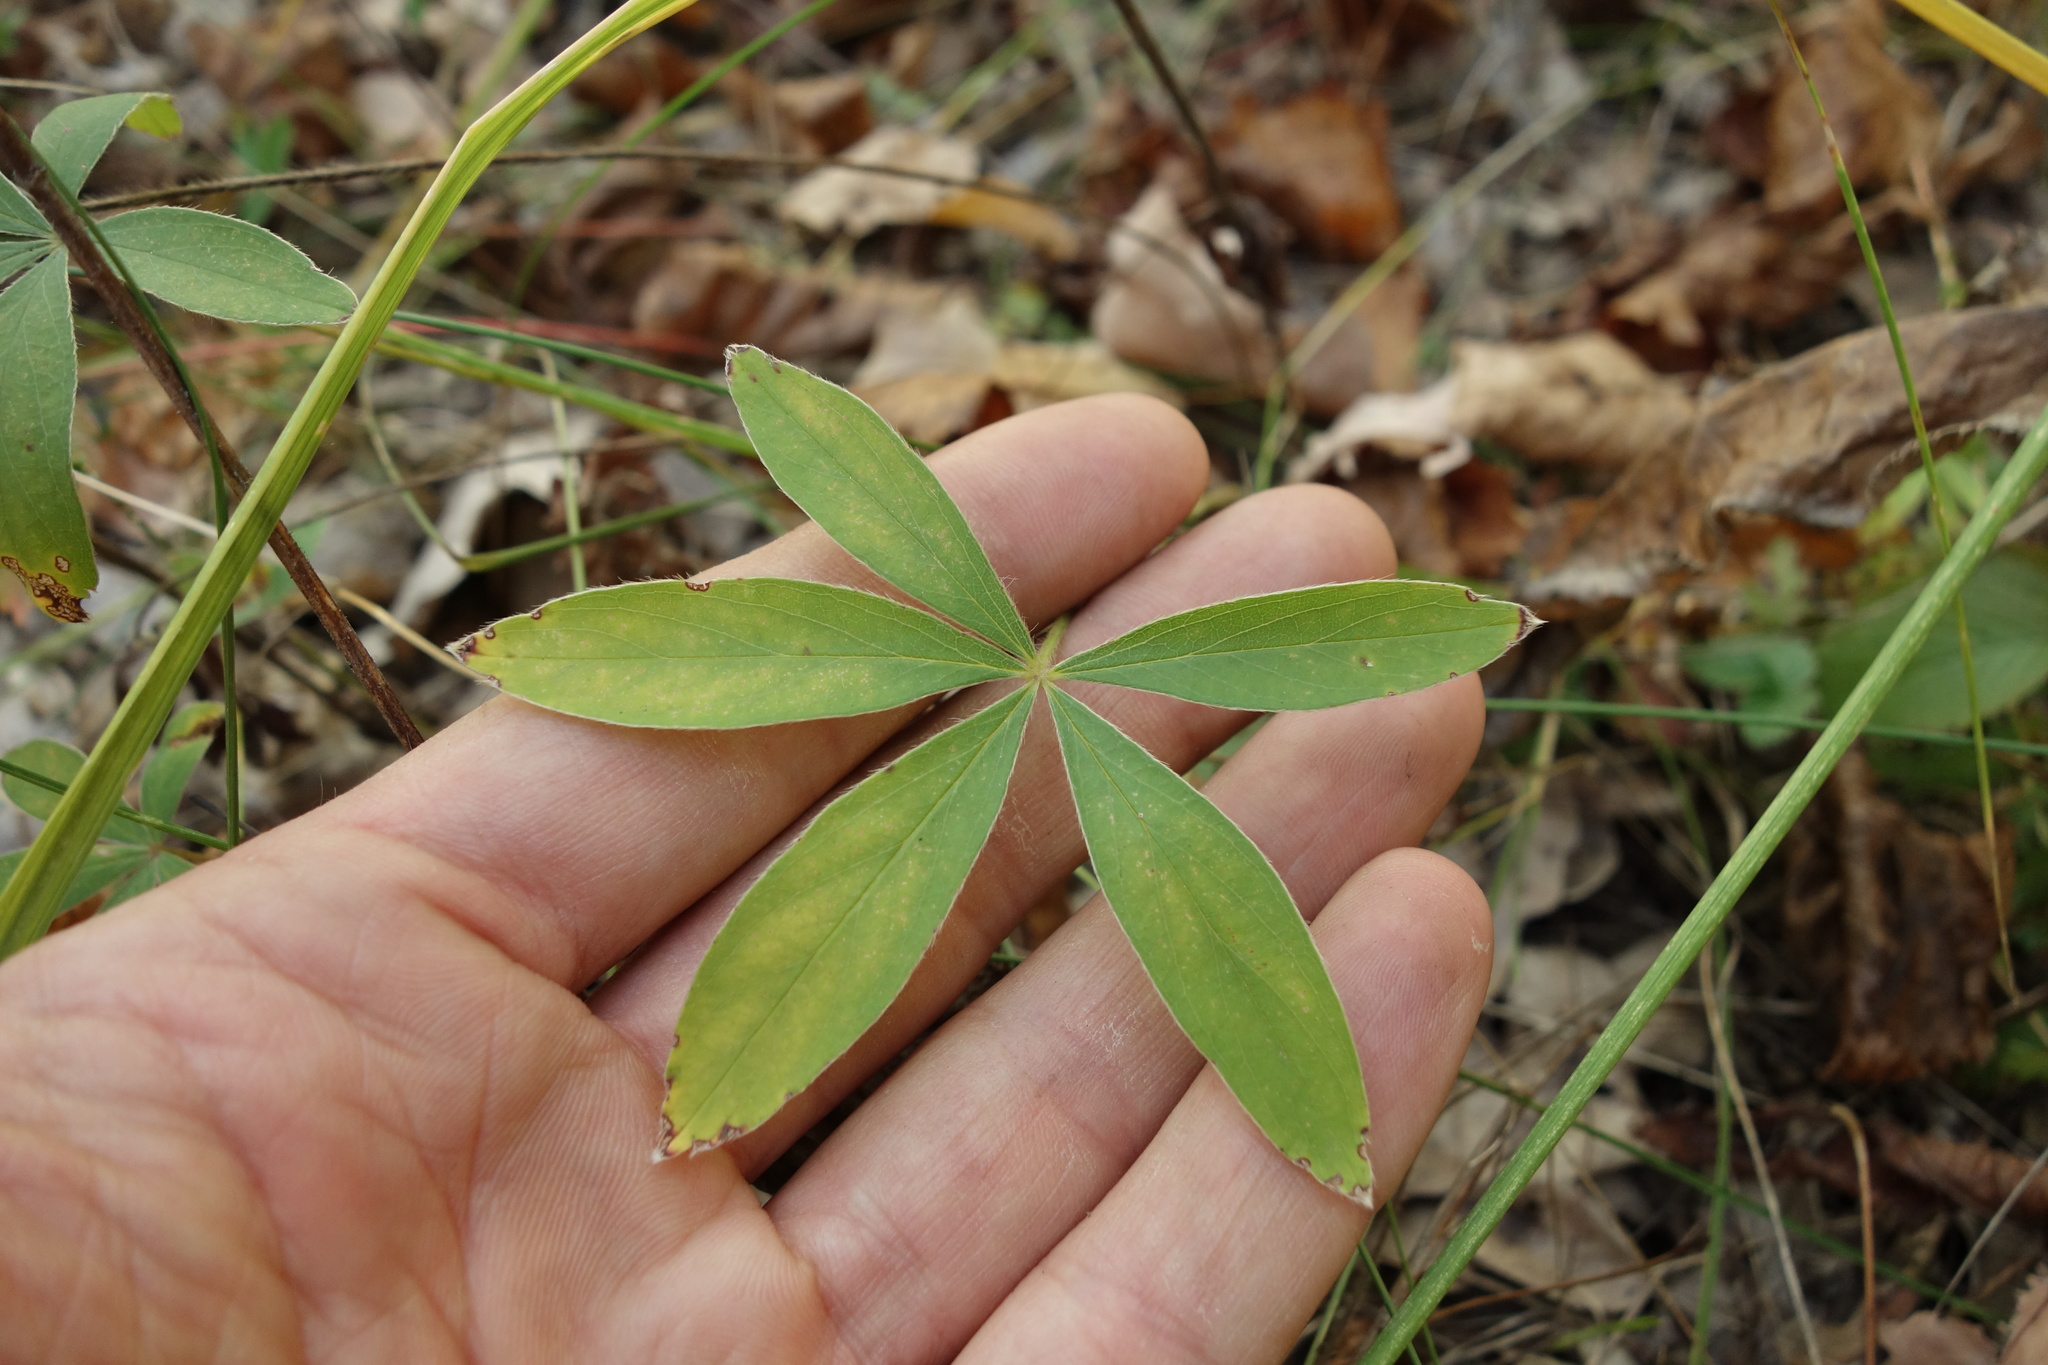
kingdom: Plantae
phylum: Tracheophyta
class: Magnoliopsida
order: Rosales
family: Rosaceae
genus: Potentilla
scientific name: Potentilla alba
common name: White cinquefoil
